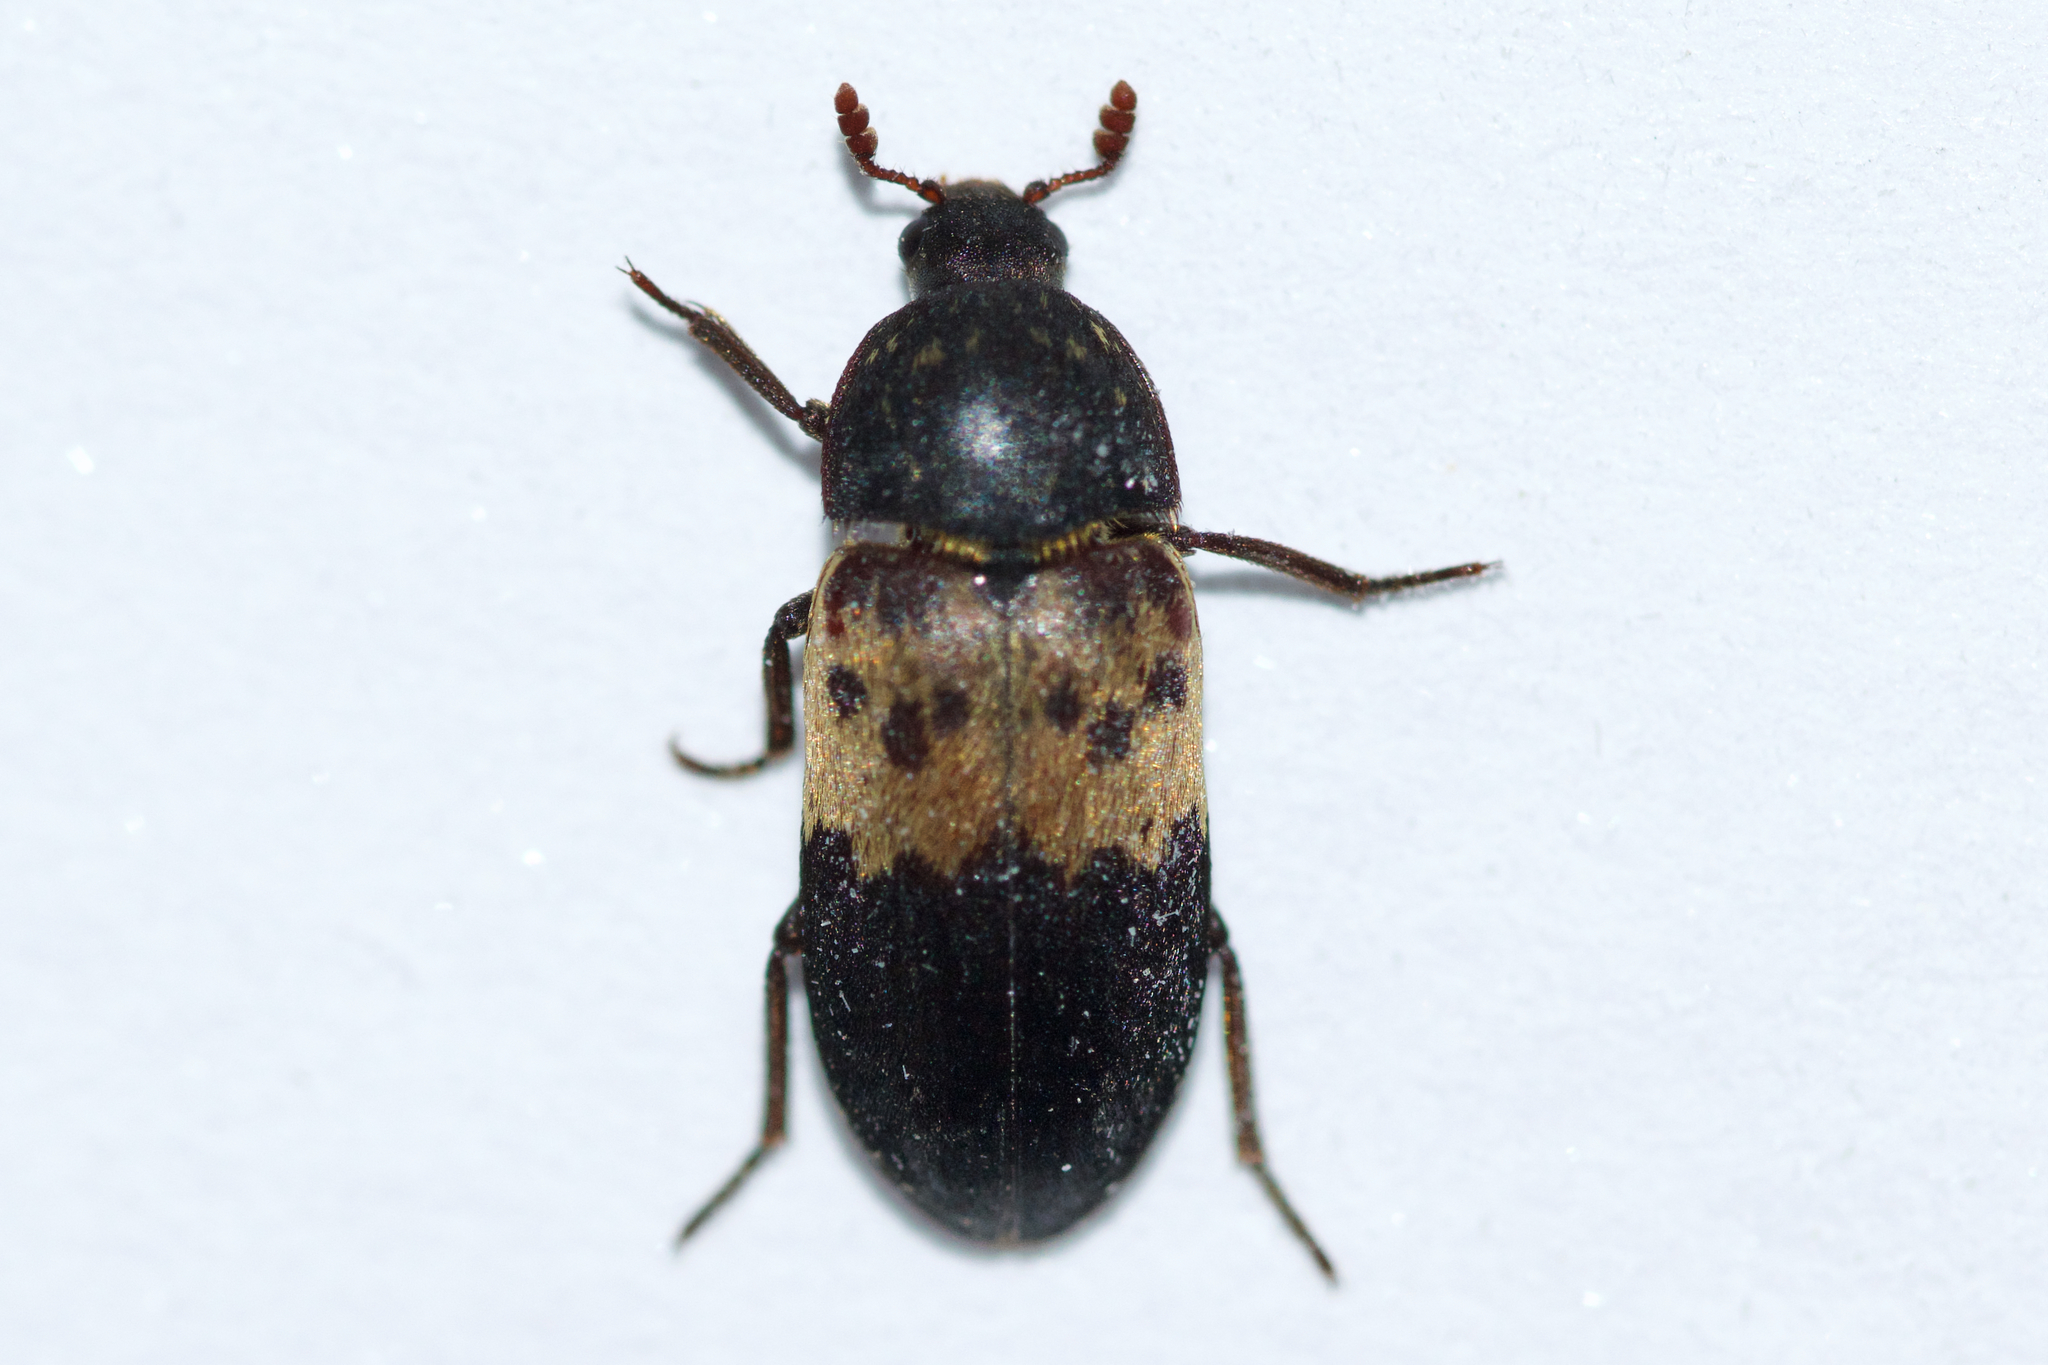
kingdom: Animalia
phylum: Arthropoda
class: Insecta
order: Coleoptera
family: Dermestidae
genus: Dermestes
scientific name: Dermestes lardarius
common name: Larder beetle
